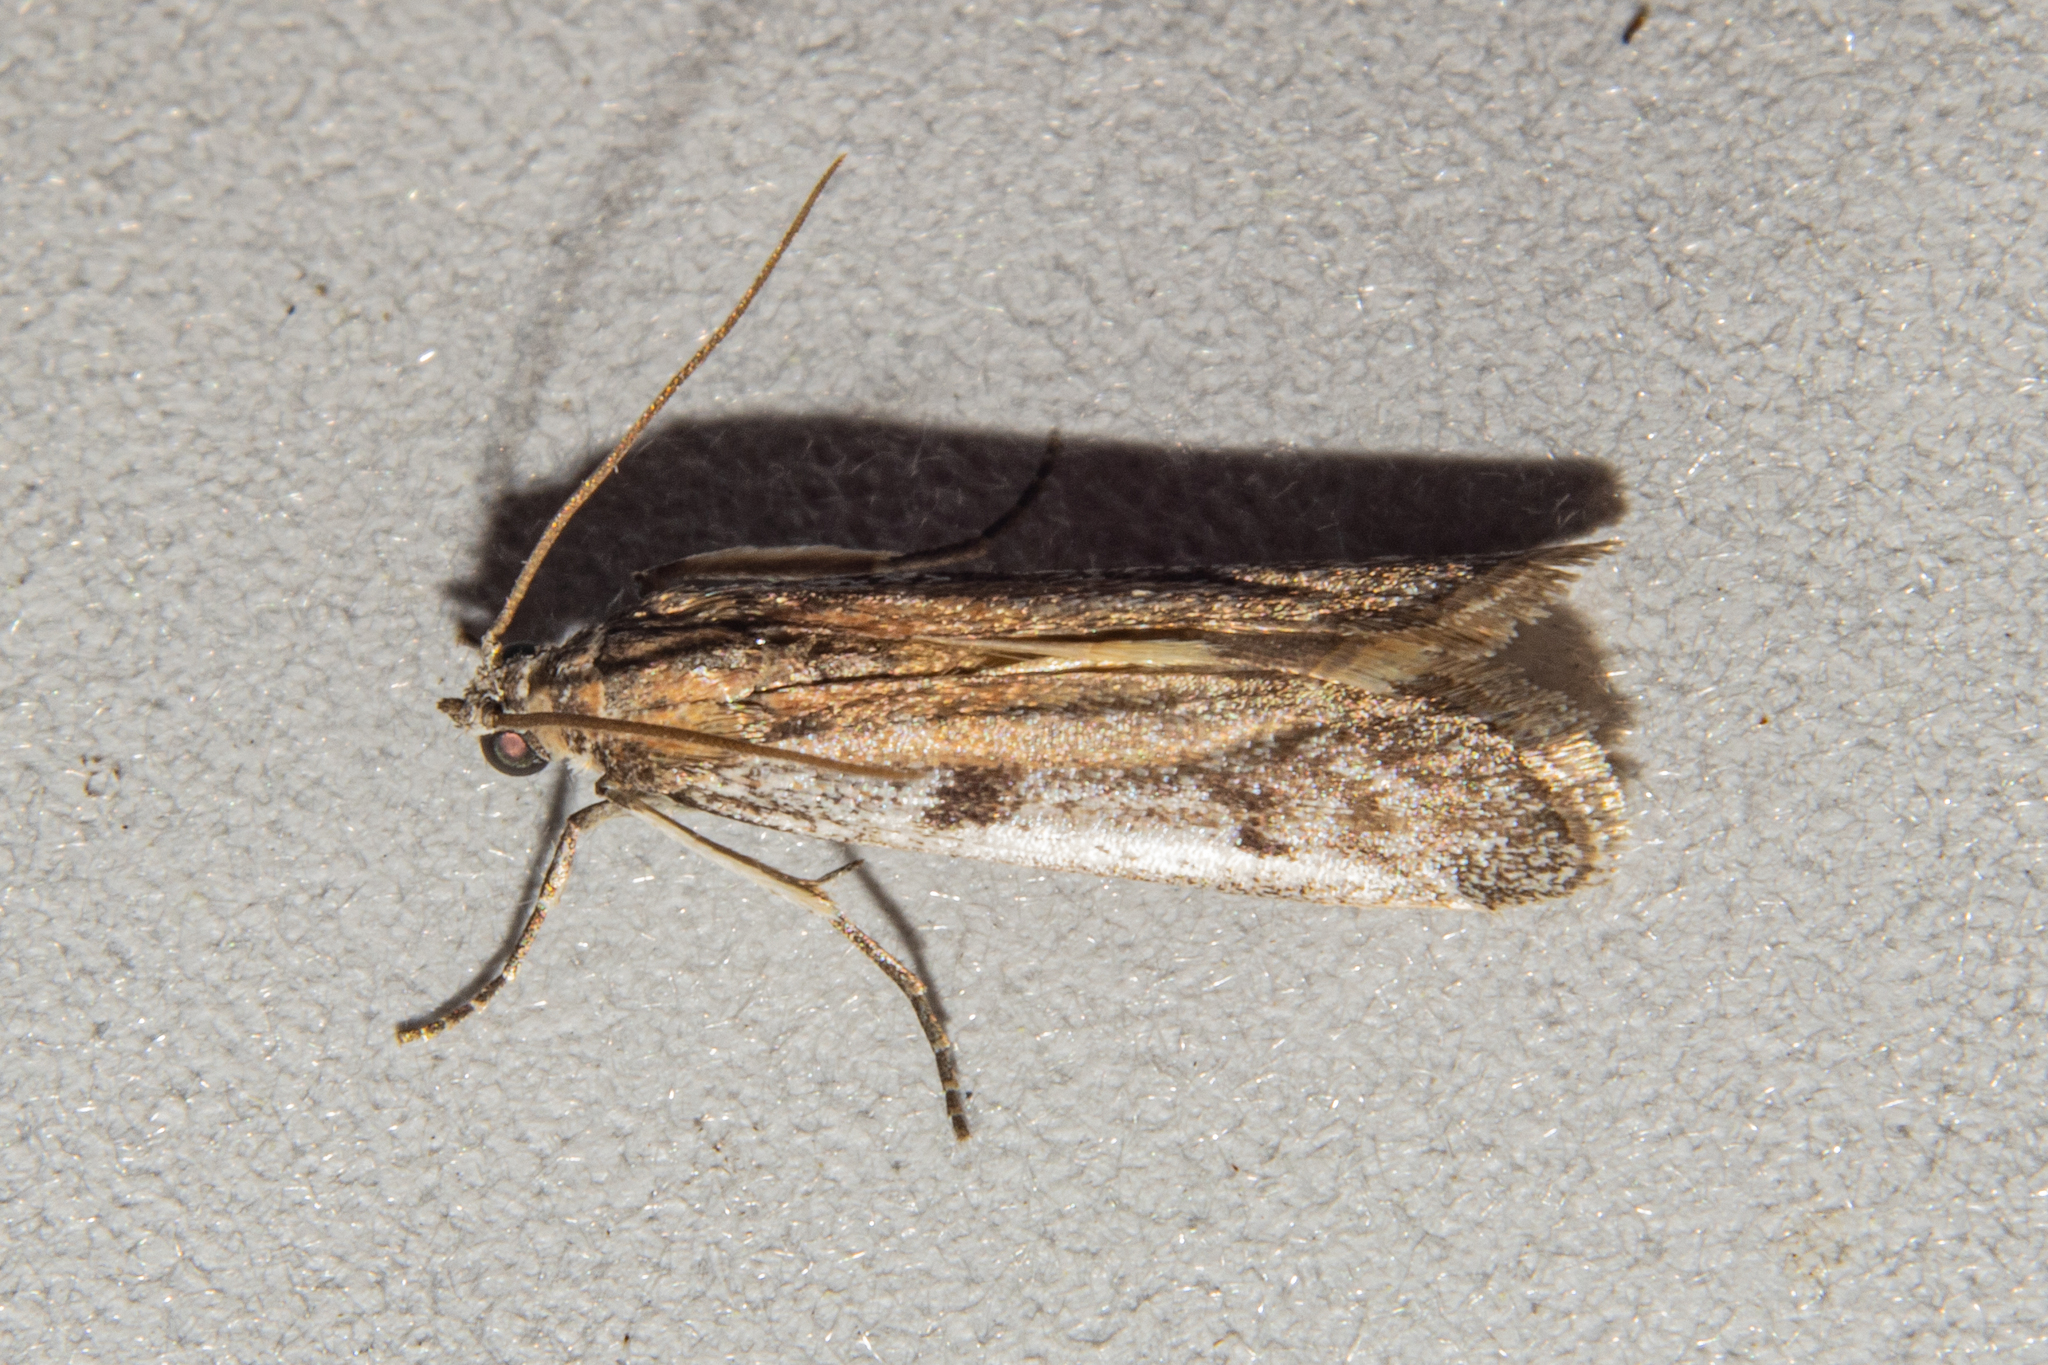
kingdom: Animalia
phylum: Arthropoda
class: Insecta
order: Lepidoptera
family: Pyralidae
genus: Patagoniodes
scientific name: Patagoniodes farinaria
